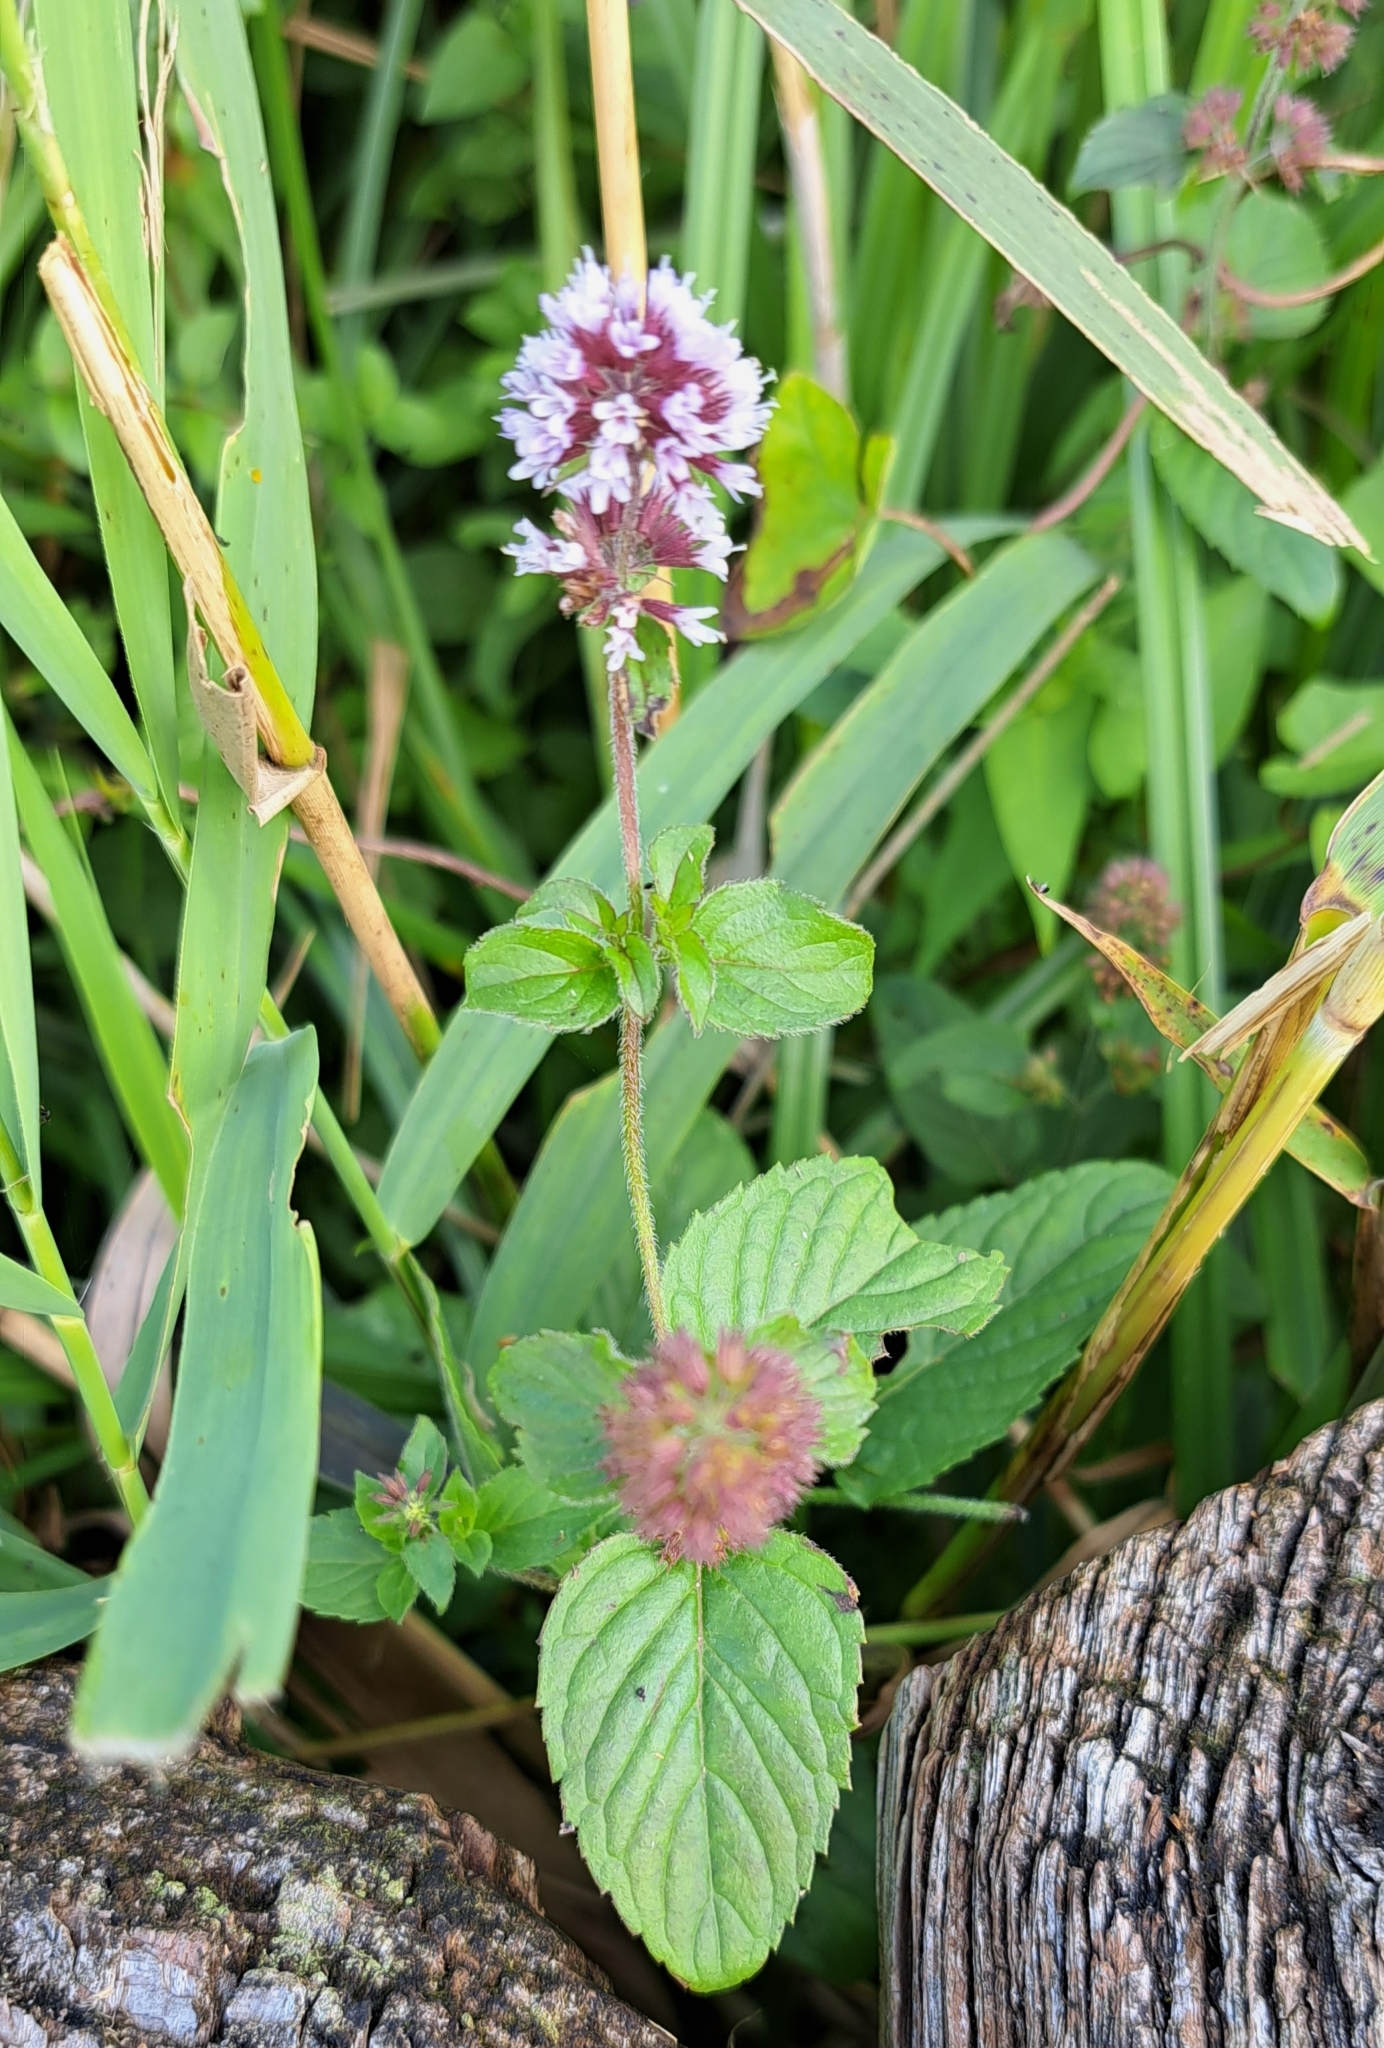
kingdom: Plantae
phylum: Tracheophyta
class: Magnoliopsida
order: Lamiales
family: Lamiaceae
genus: Mentha
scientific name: Mentha aquatica
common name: Water mint
